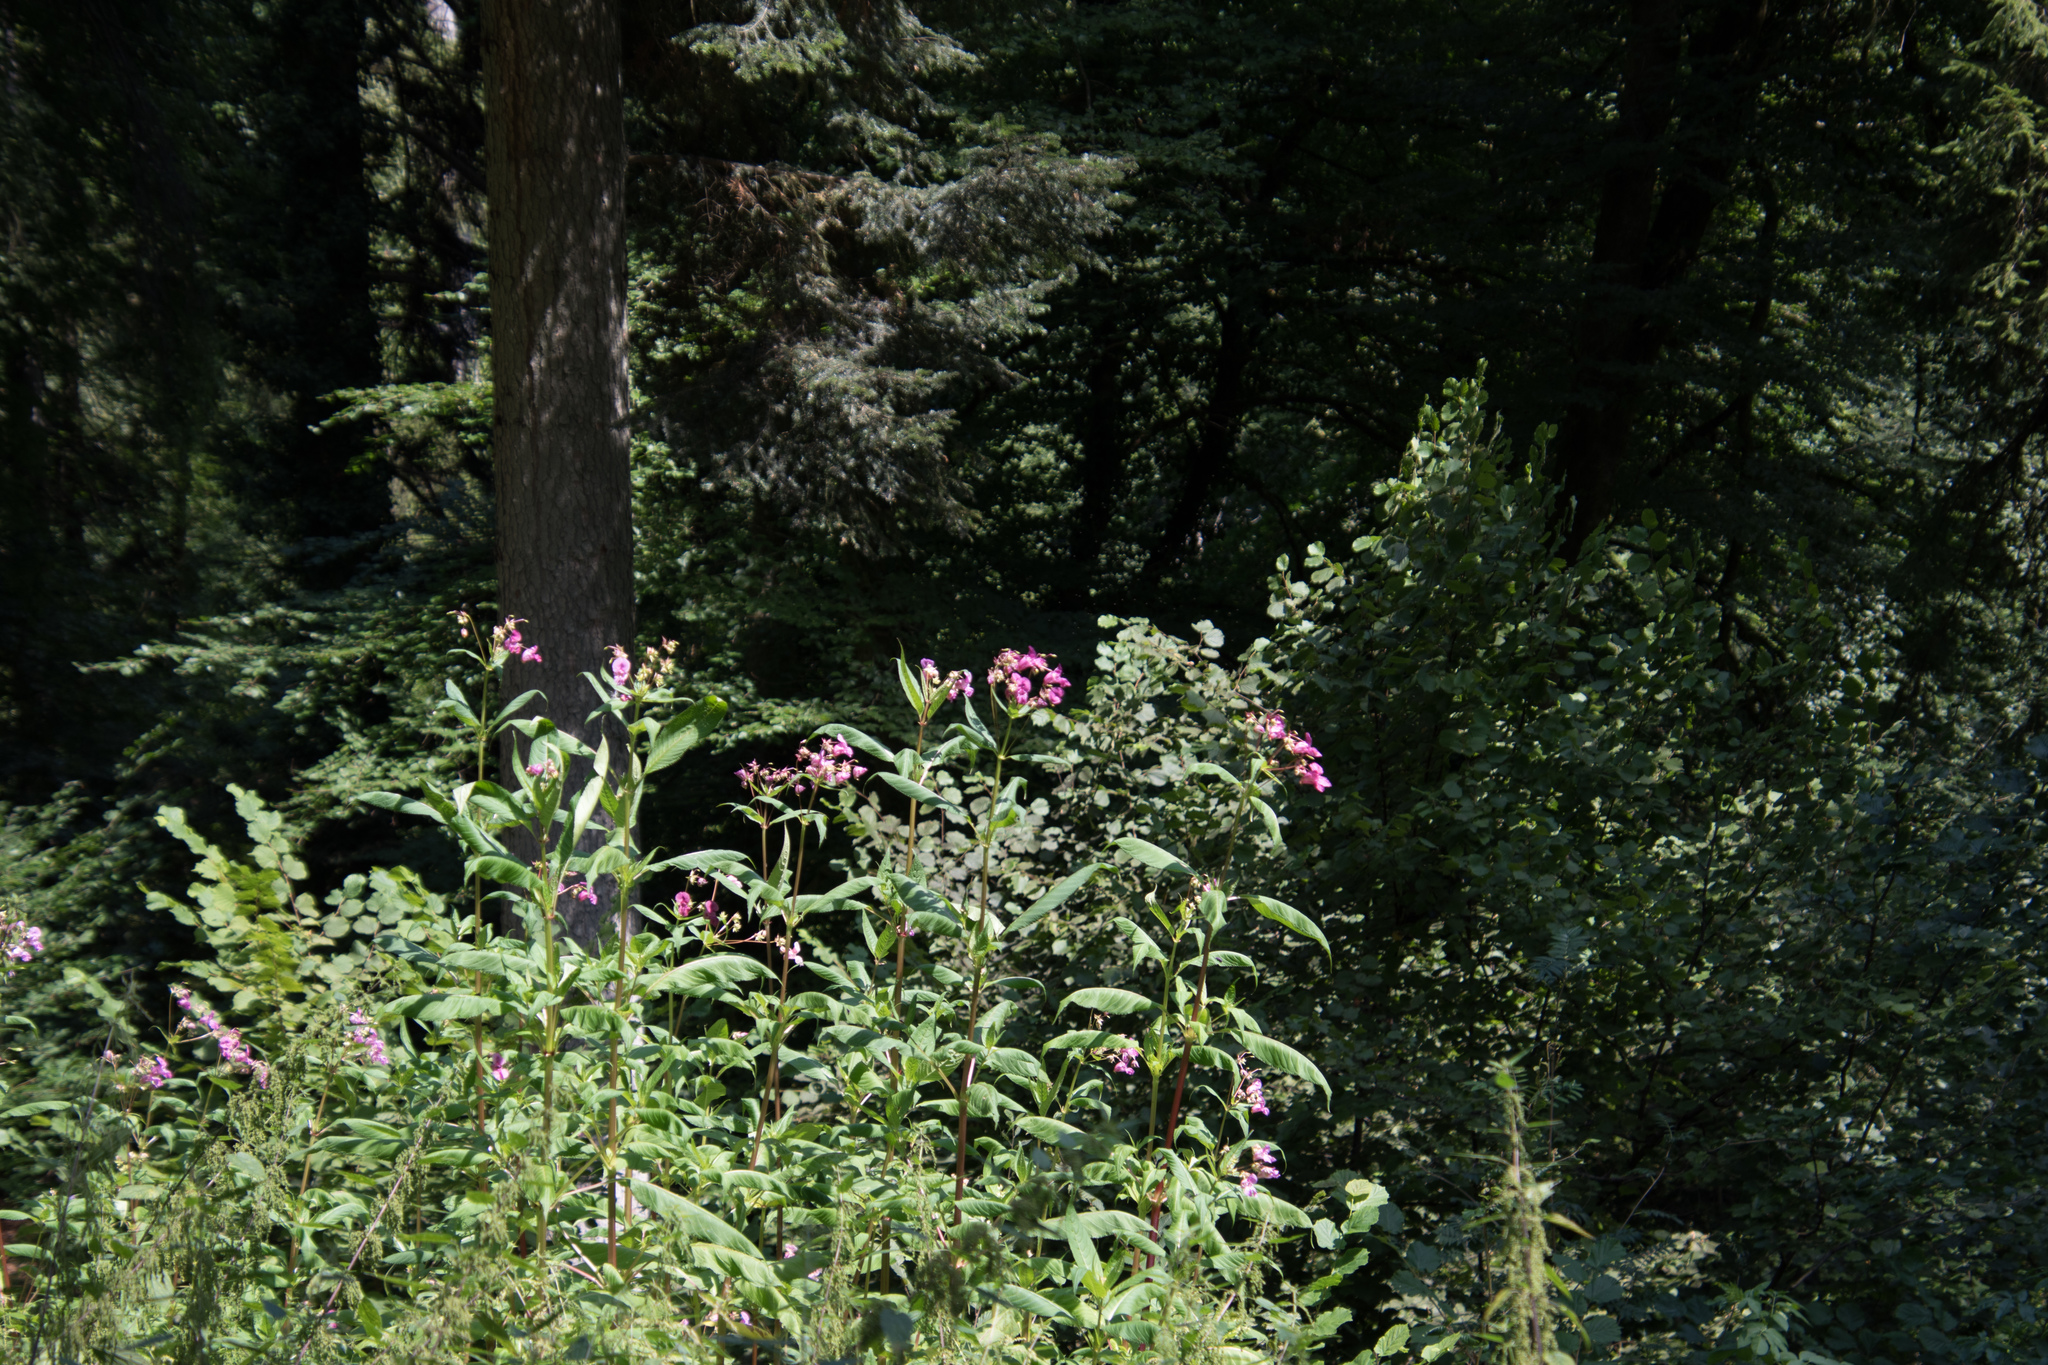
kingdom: Plantae
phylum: Tracheophyta
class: Magnoliopsida
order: Ericales
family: Balsaminaceae
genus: Impatiens
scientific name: Impatiens glandulifera
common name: Himalayan balsam
